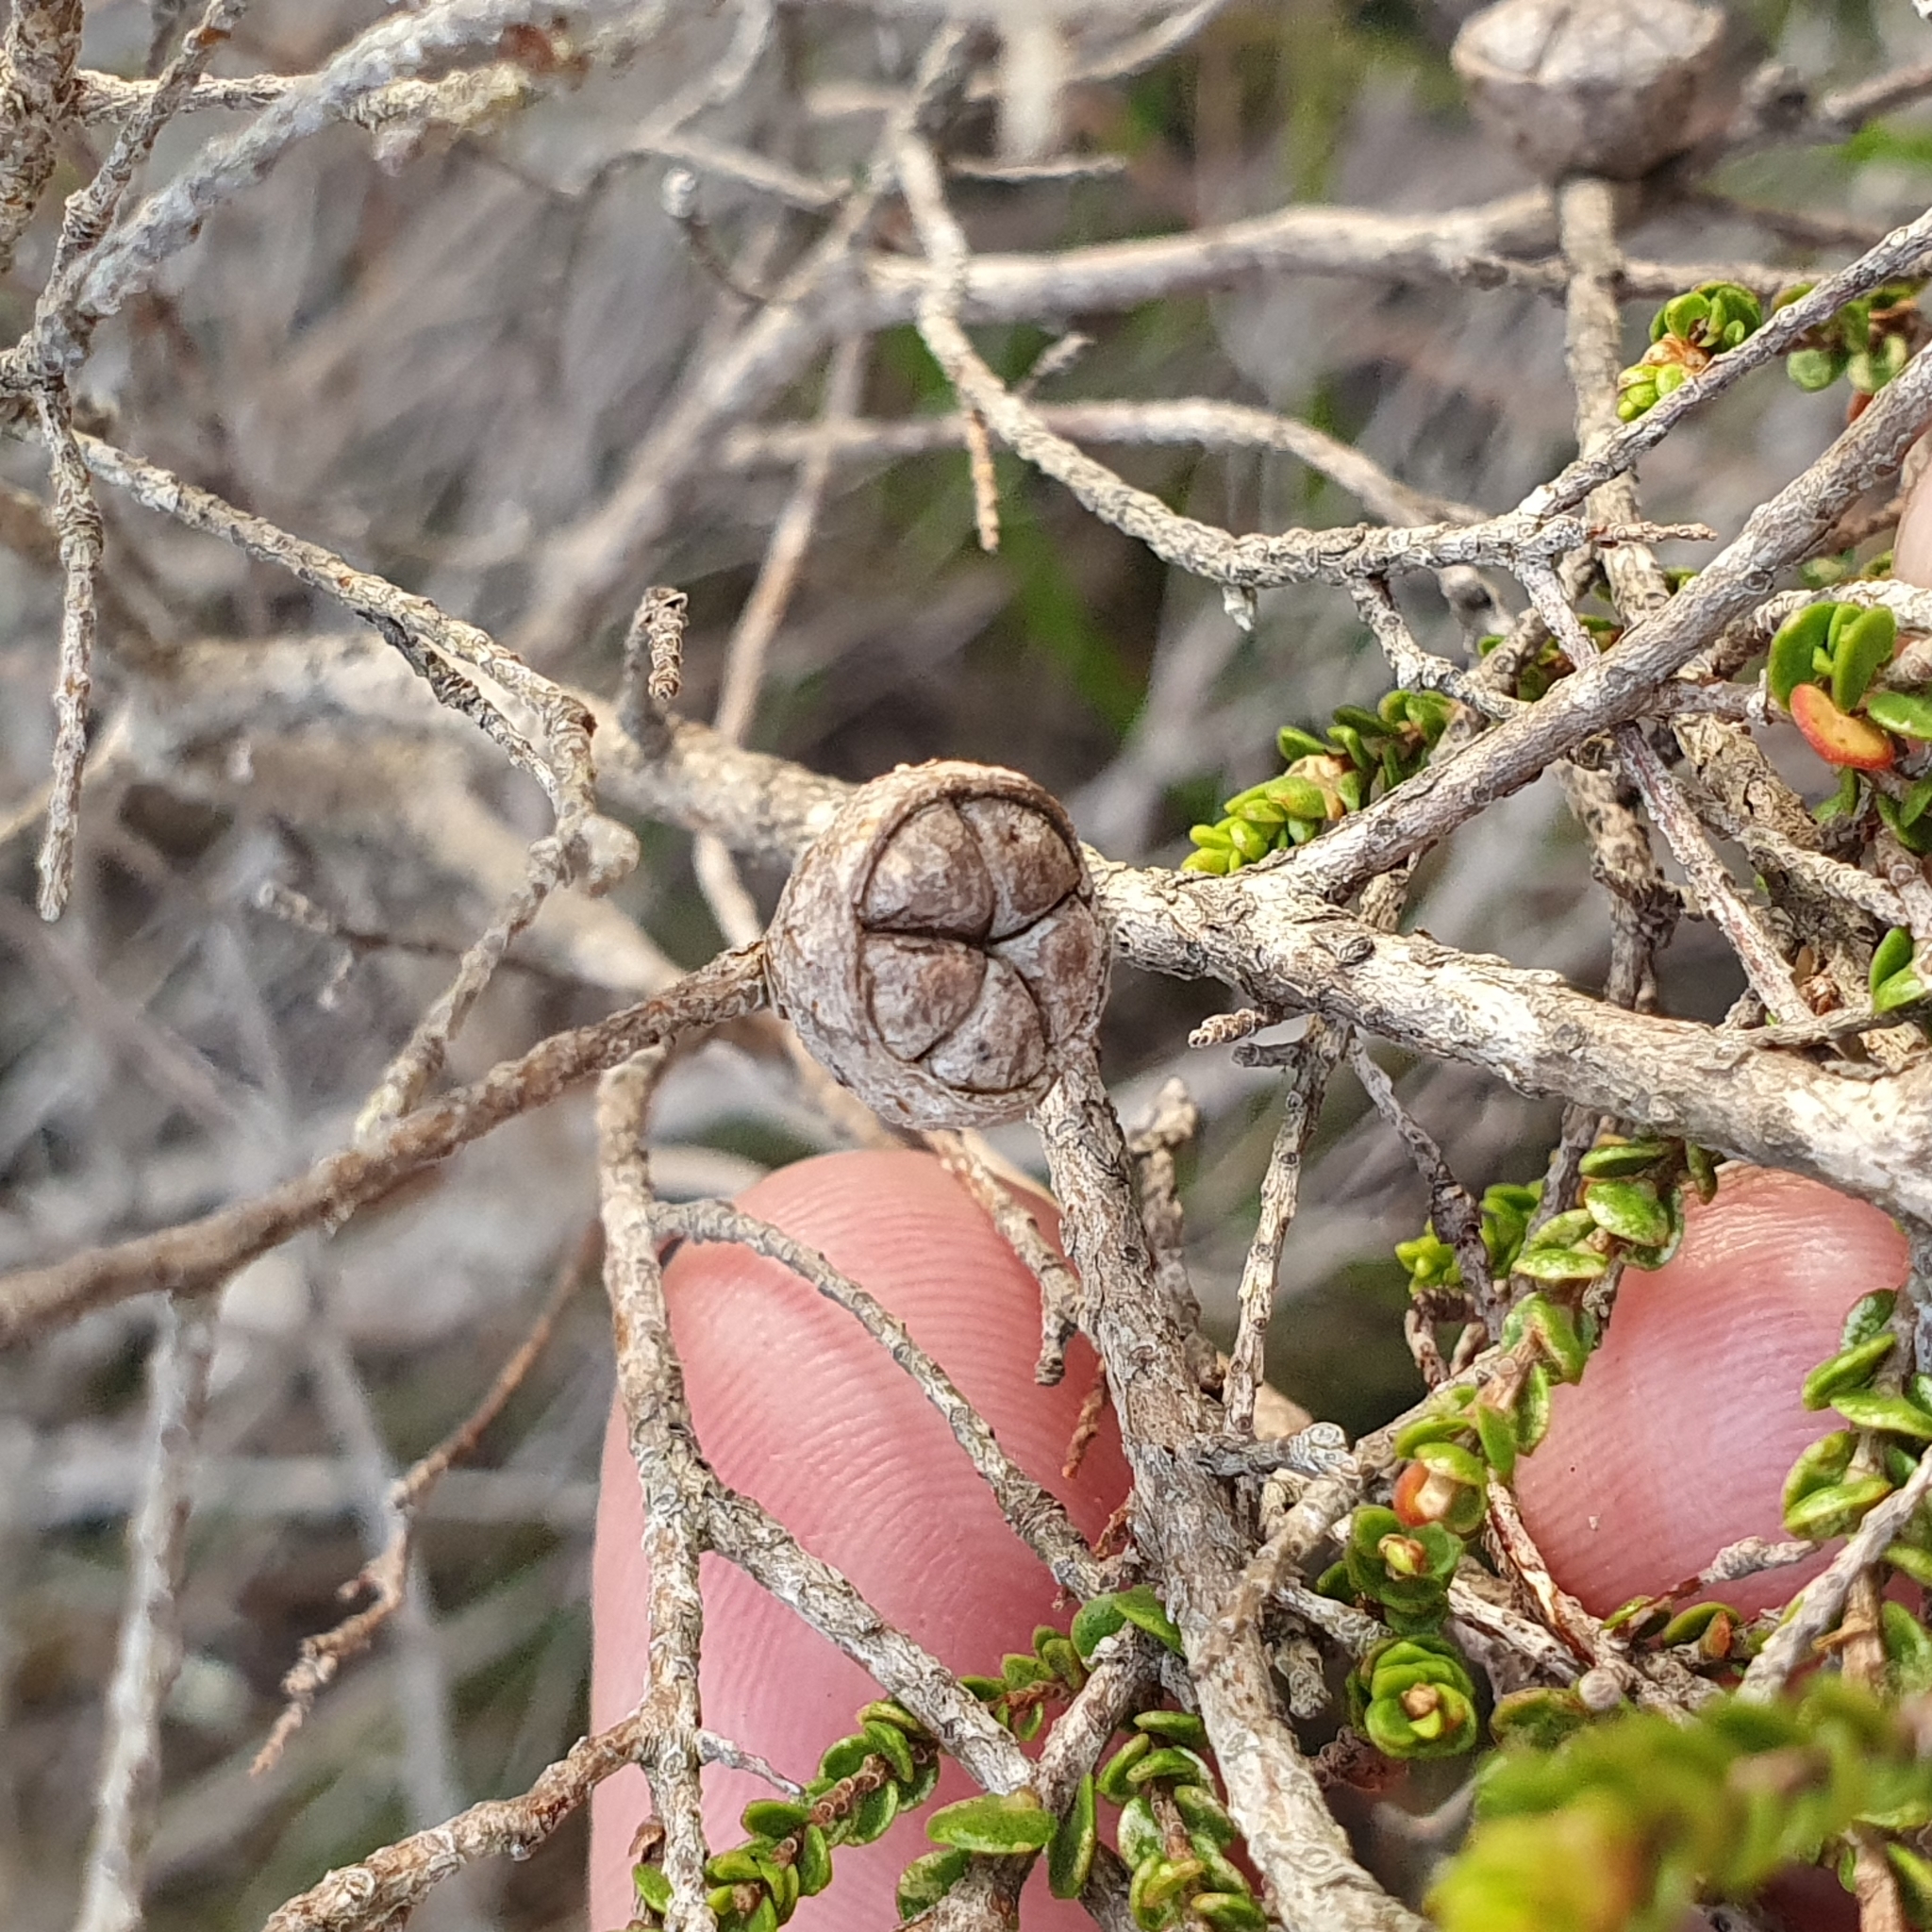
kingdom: Plantae
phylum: Tracheophyta
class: Magnoliopsida
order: Myrtales
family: Myrtaceae
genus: Leptospermum
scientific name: Leptospermum epacridoideum
